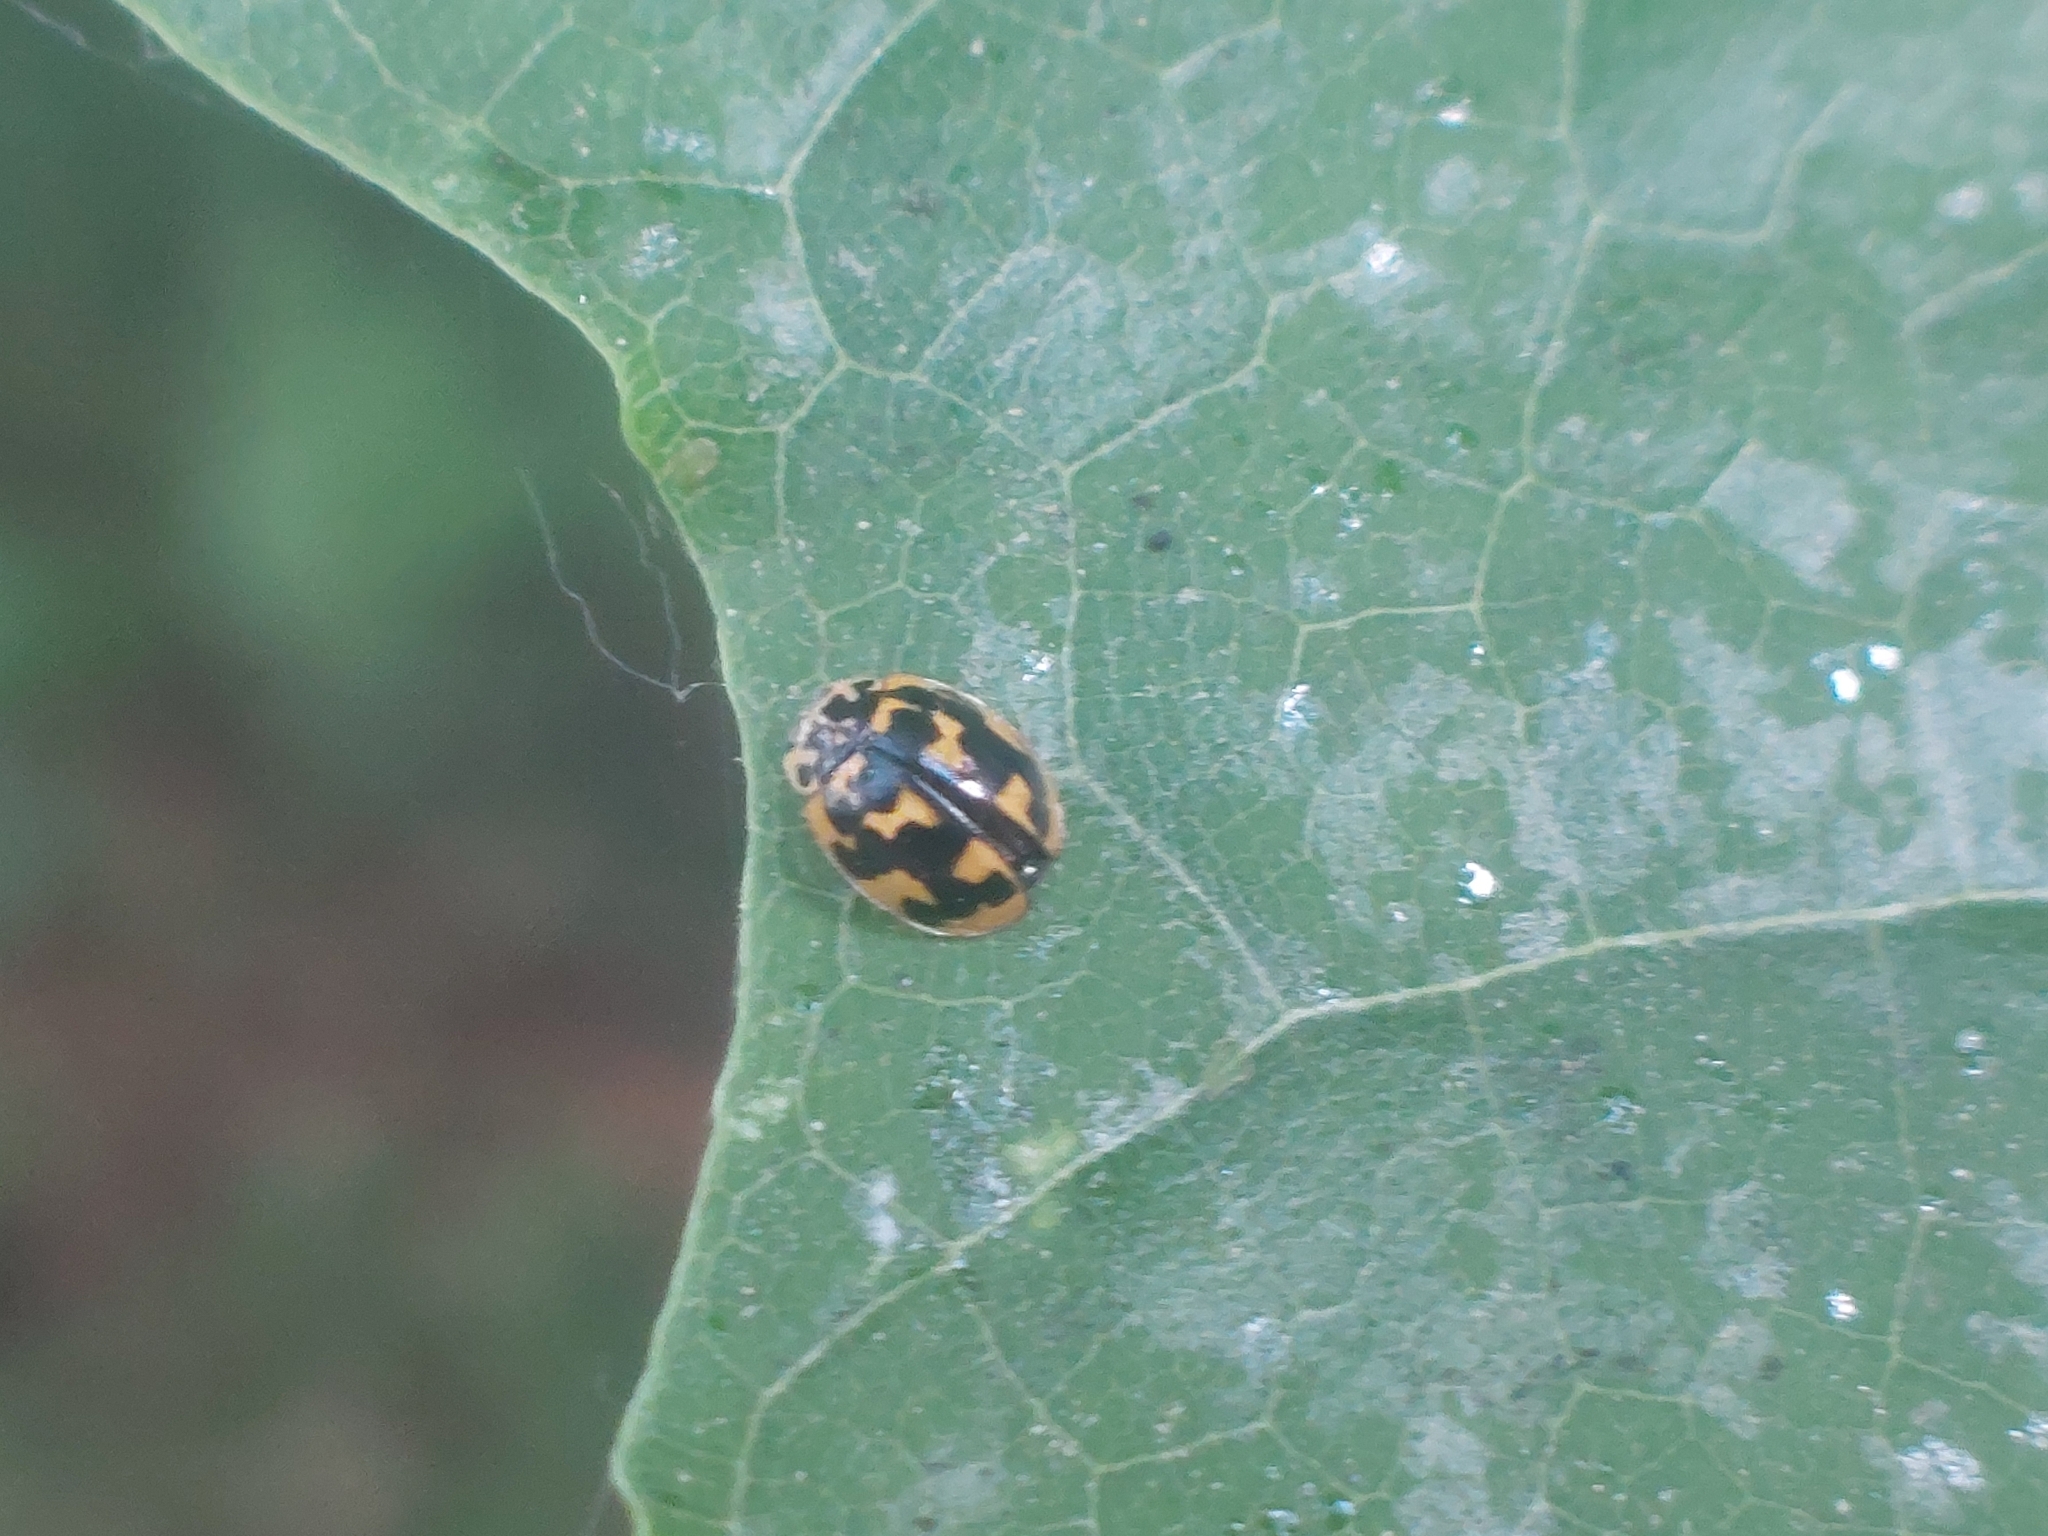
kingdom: Animalia
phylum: Arthropoda
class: Insecta
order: Coleoptera
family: Coccinellidae
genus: Oenopia
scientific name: Oenopia conglobata
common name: Ladybird beetle
